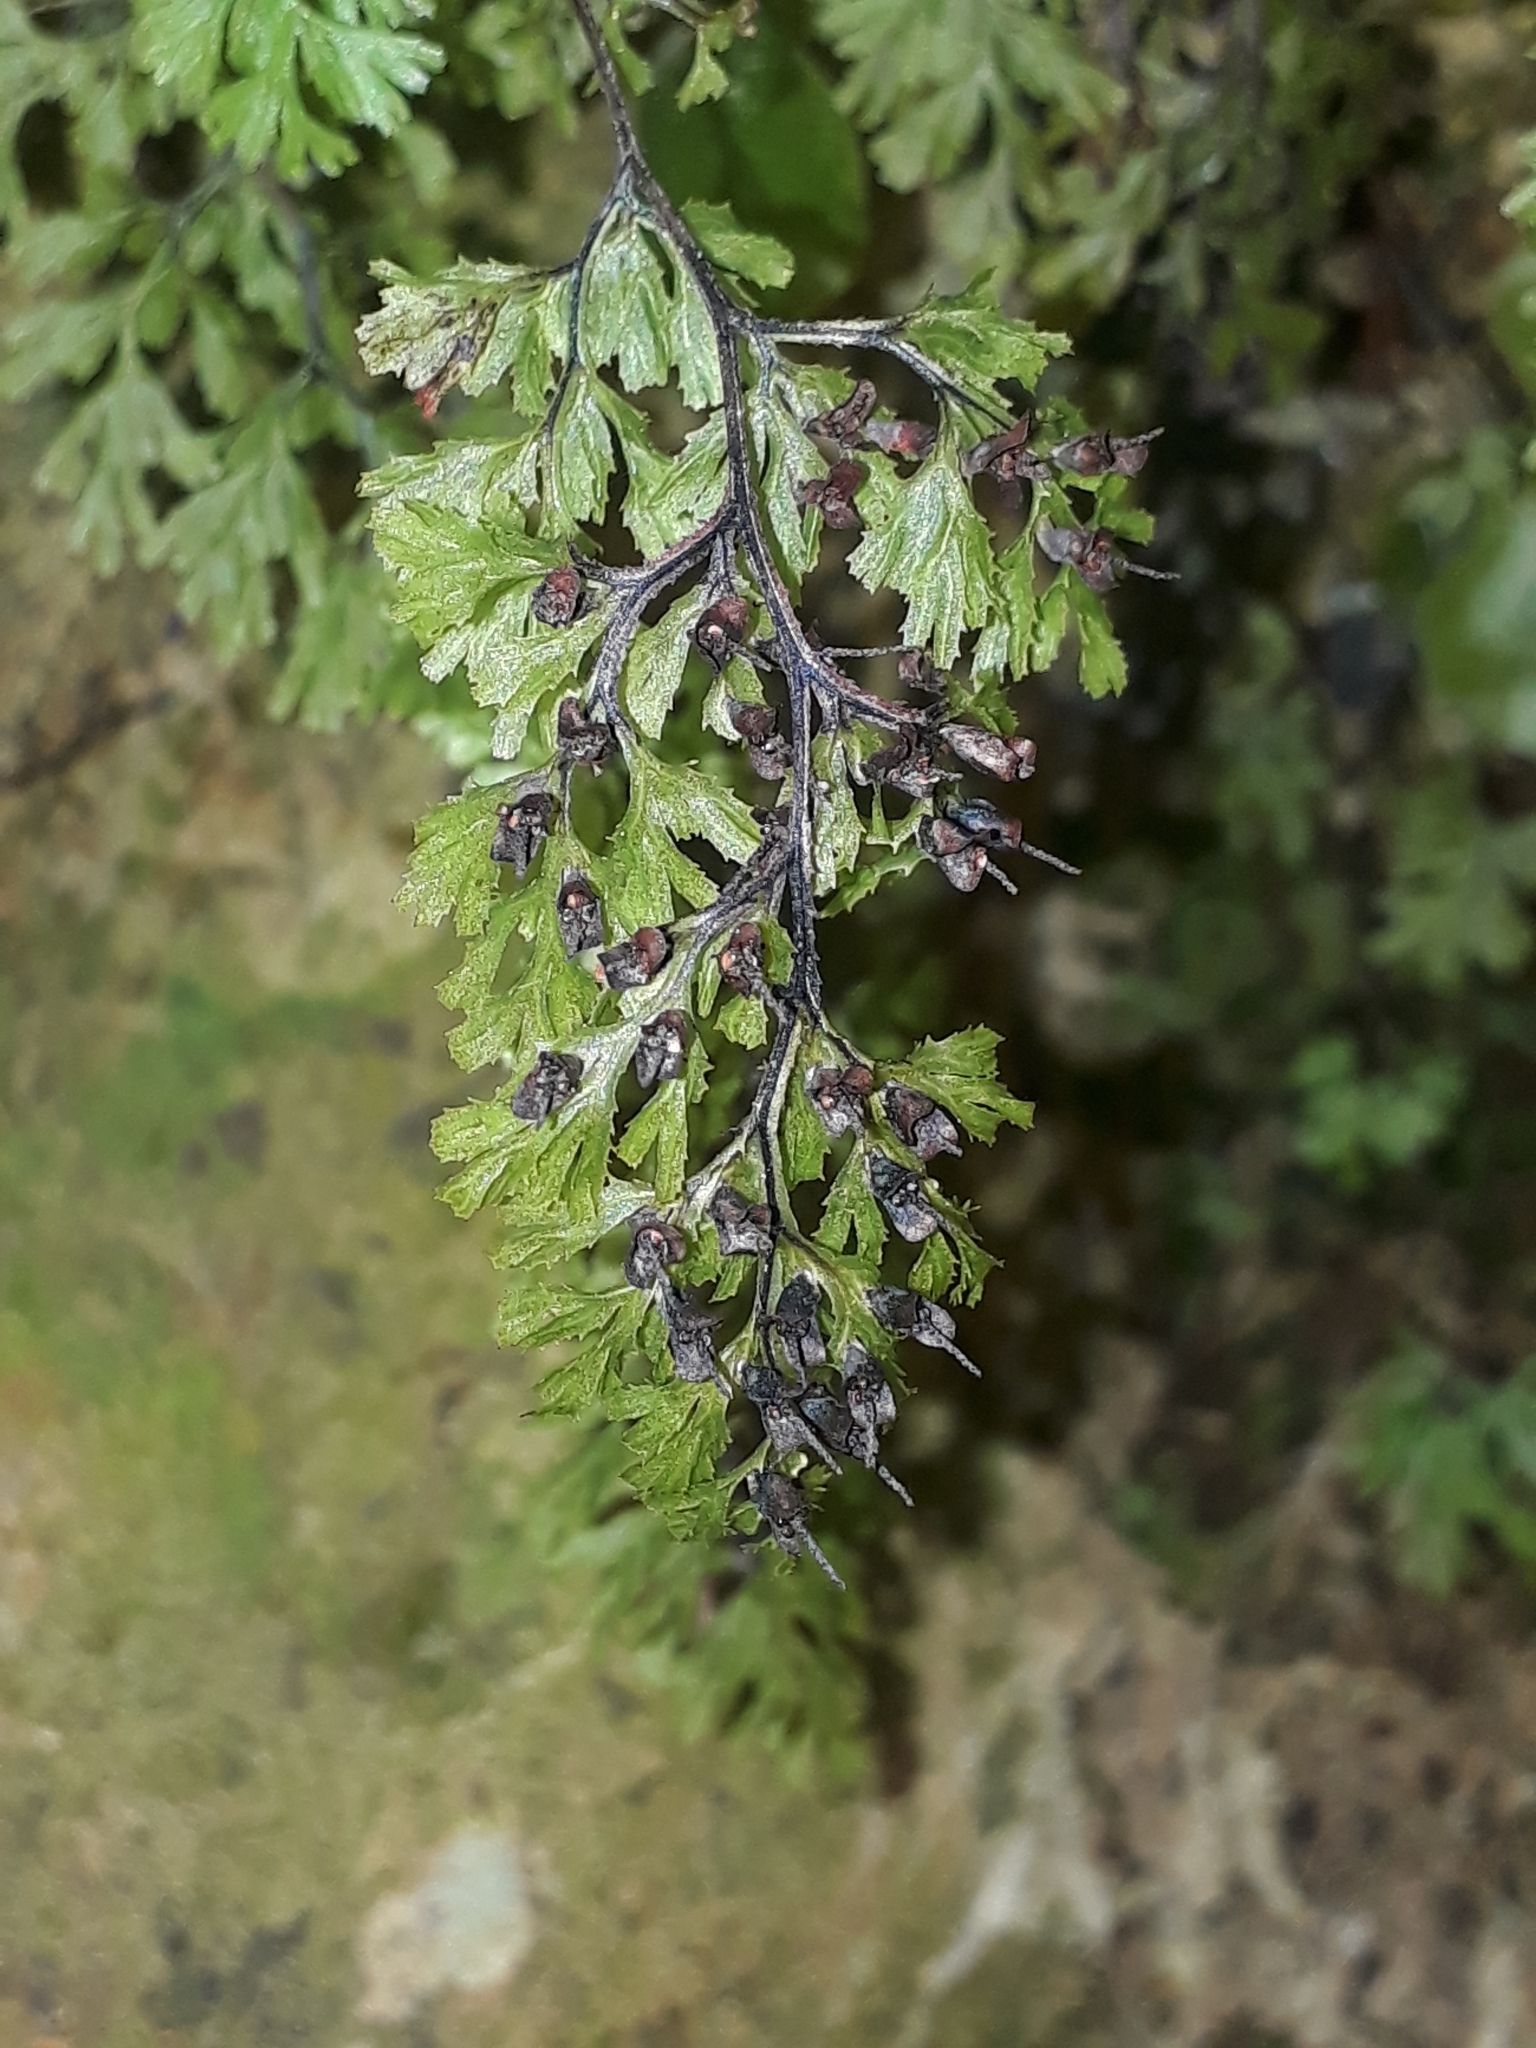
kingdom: Plantae
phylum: Tracheophyta
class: Polypodiopsida
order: Hymenophyllales
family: Hymenophyllaceae
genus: Hymenophyllum
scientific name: Hymenophyllum multifidum
